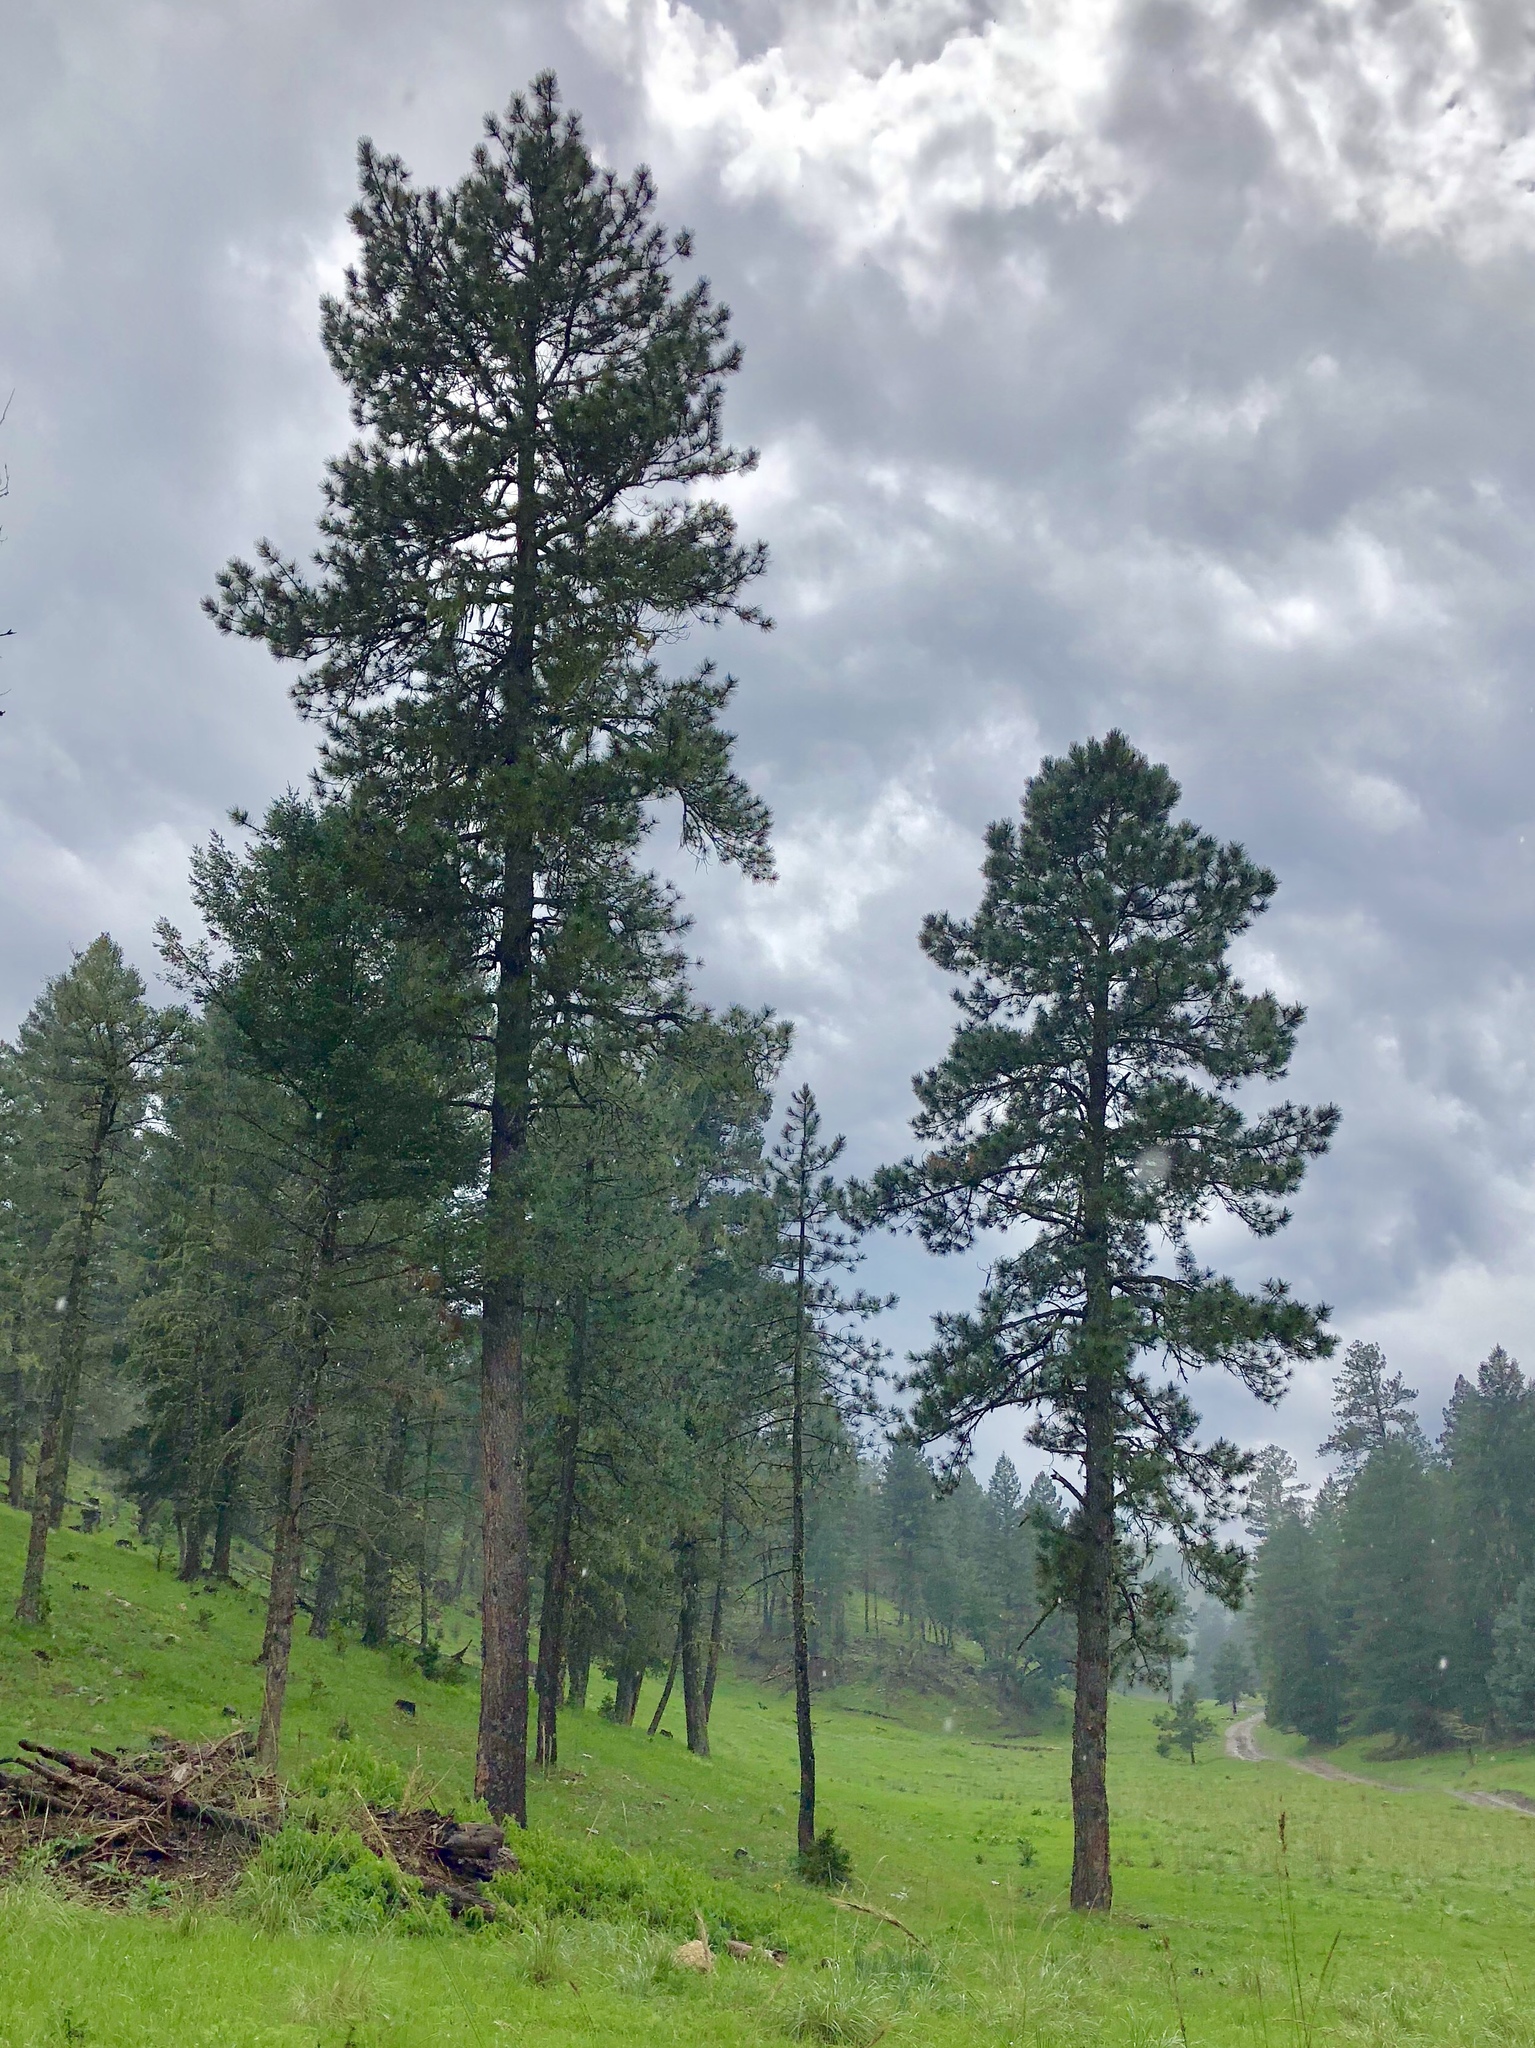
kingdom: Plantae
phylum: Tracheophyta
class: Pinopsida
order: Pinales
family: Pinaceae
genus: Pinus
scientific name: Pinus ponderosa
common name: Western yellow-pine
